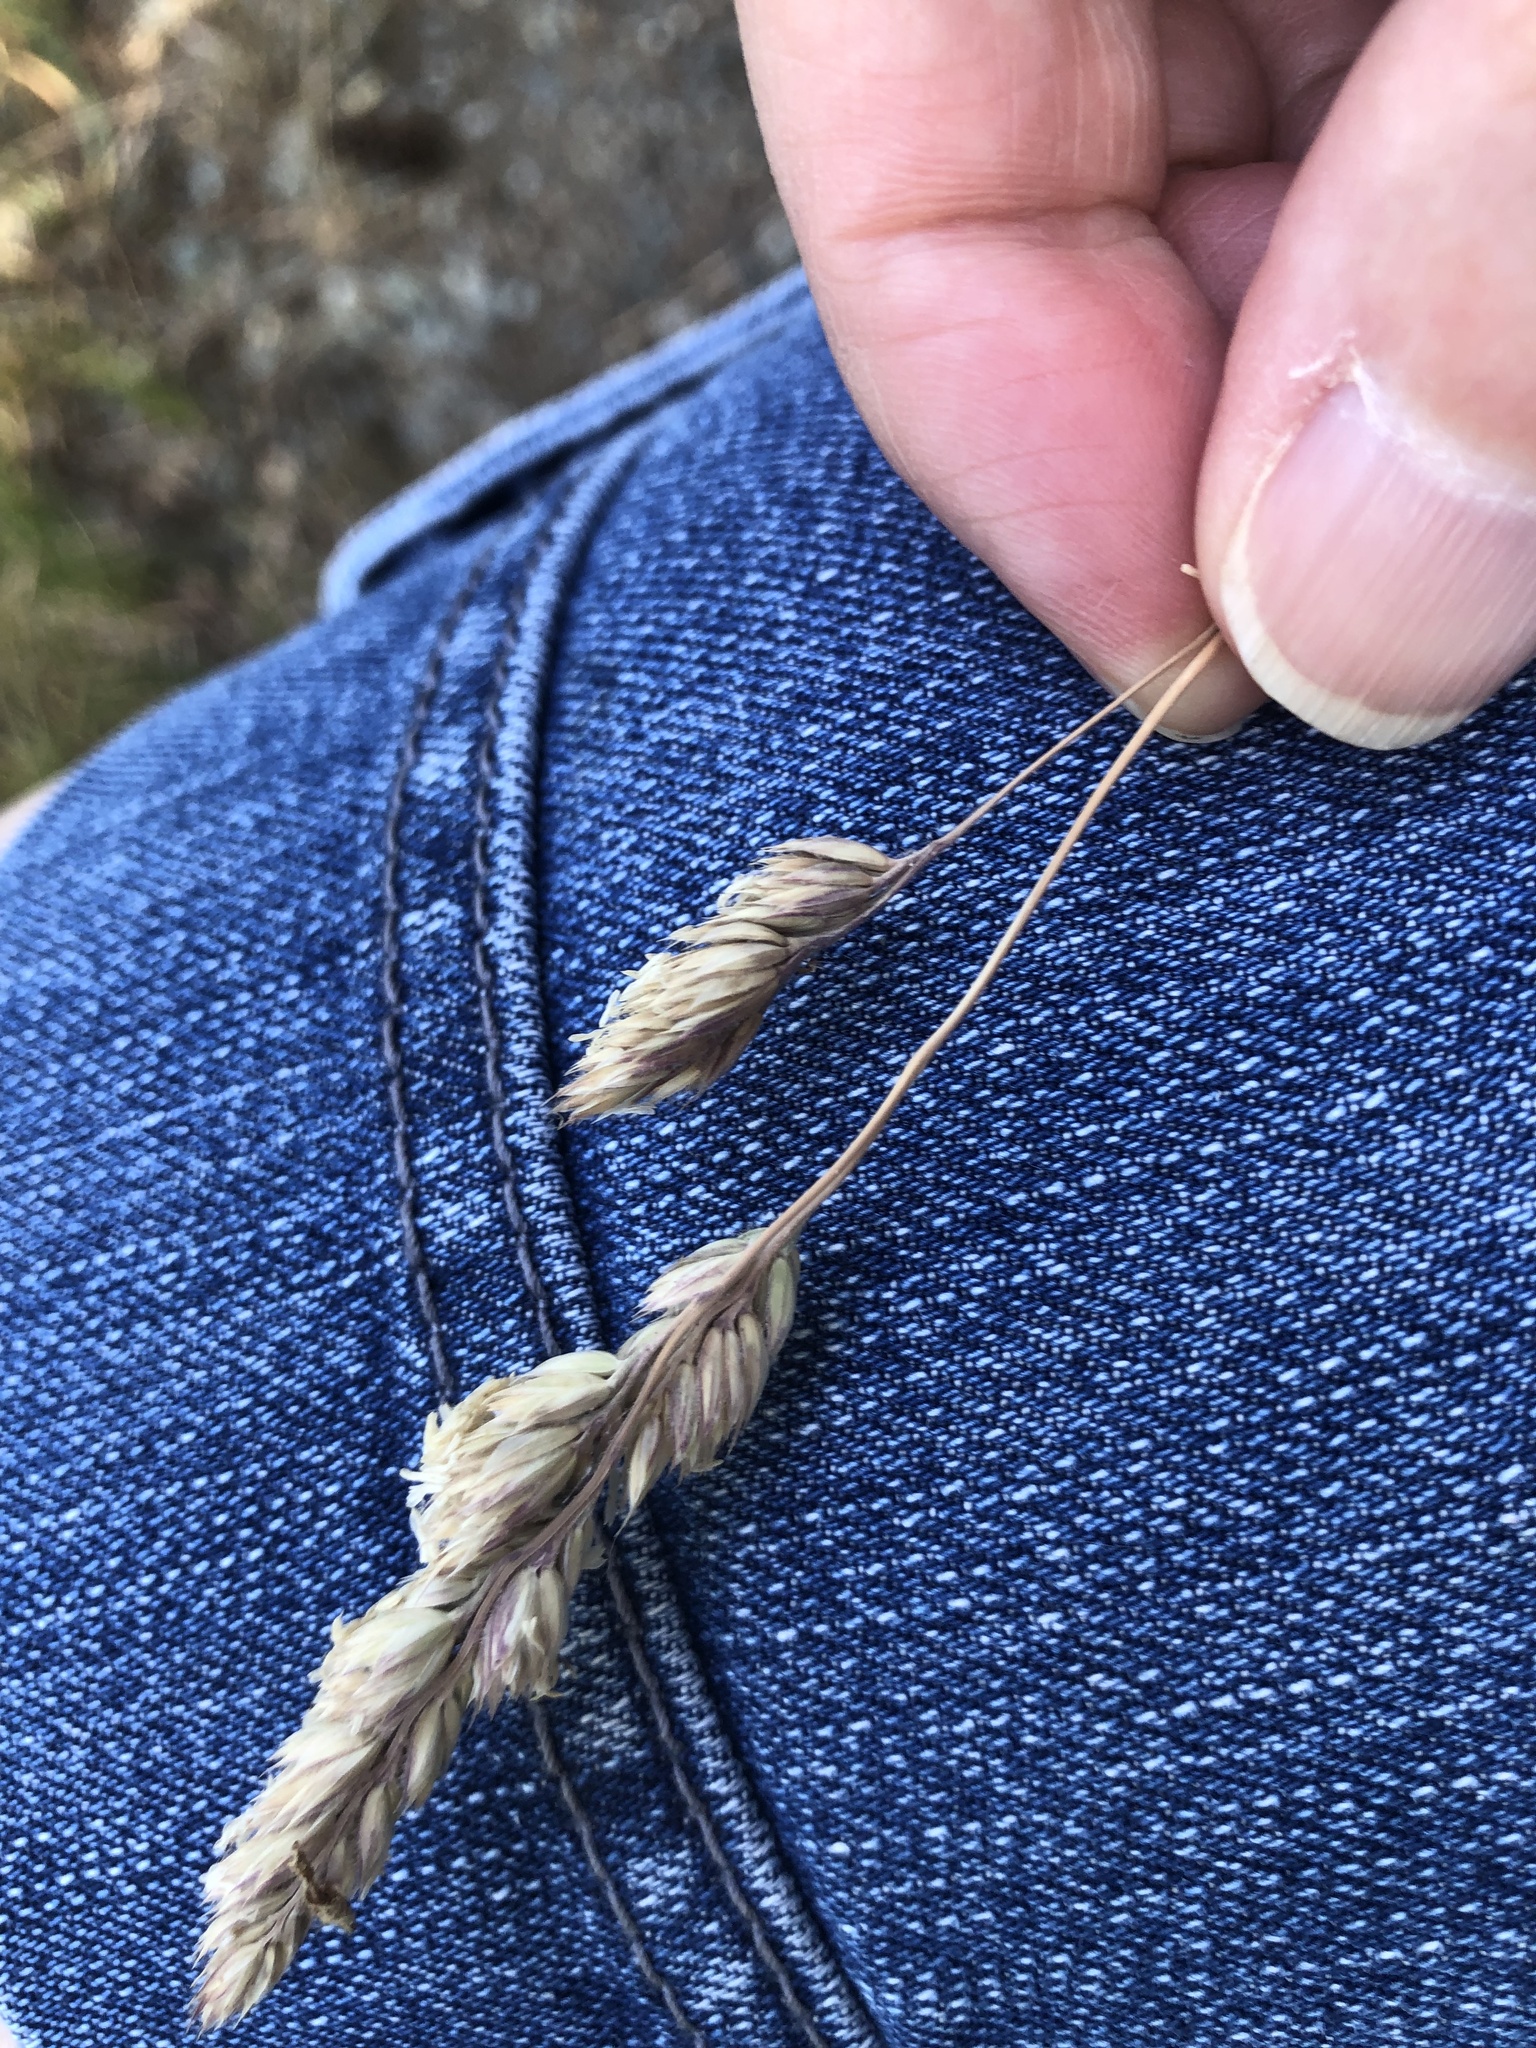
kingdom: Plantae
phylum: Tracheophyta
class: Liliopsida
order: Poales
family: Poaceae
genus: Dactylis
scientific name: Dactylis glomerata
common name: Orchardgrass
